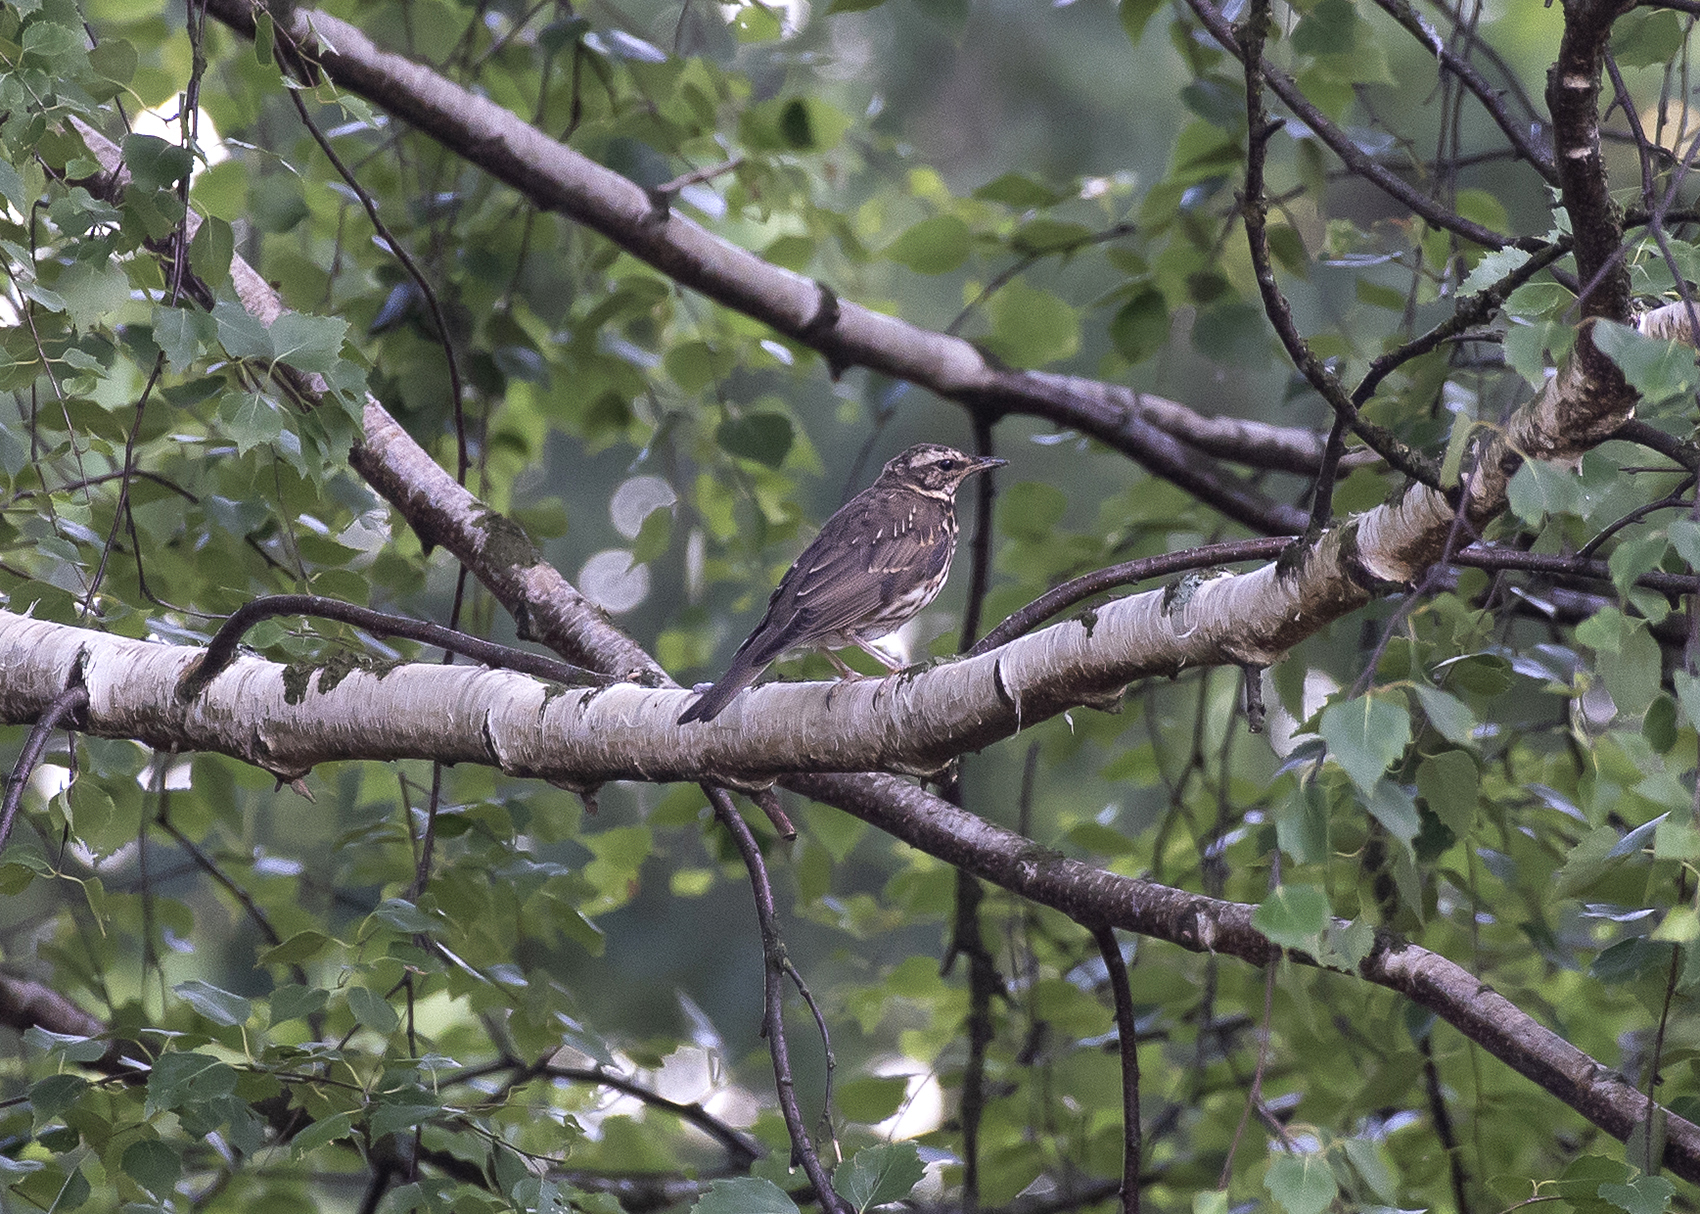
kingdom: Animalia
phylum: Chordata
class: Aves
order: Passeriformes
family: Turdidae
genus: Turdus
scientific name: Turdus iliacus
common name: Redwing
